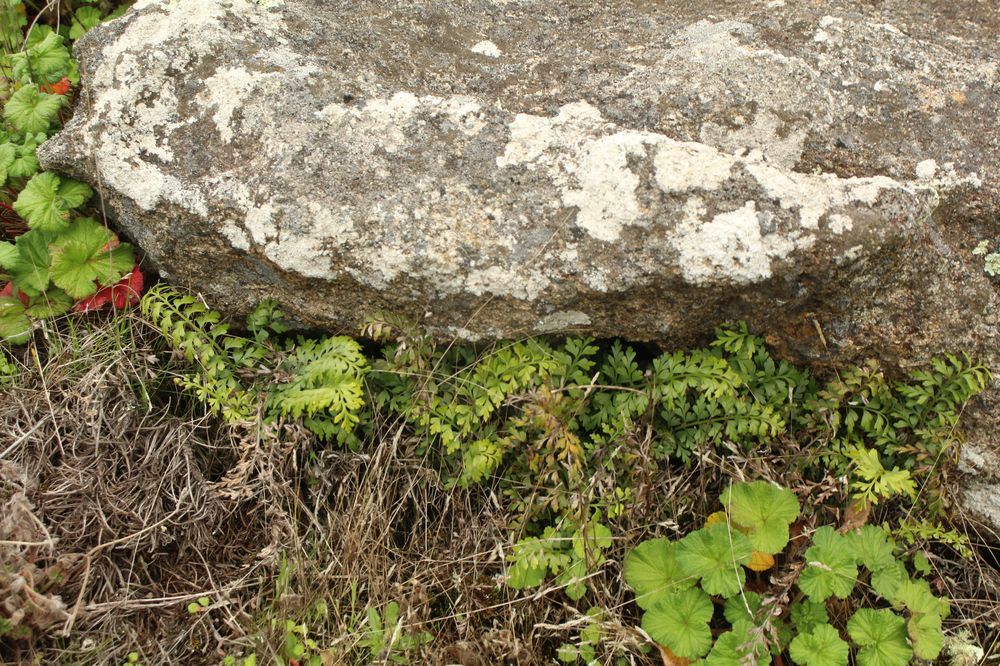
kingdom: Plantae
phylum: Tracheophyta
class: Polypodiopsida
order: Polypodiales
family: Aspleniaceae
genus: Asplenium
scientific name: Asplenium aethiopicum
